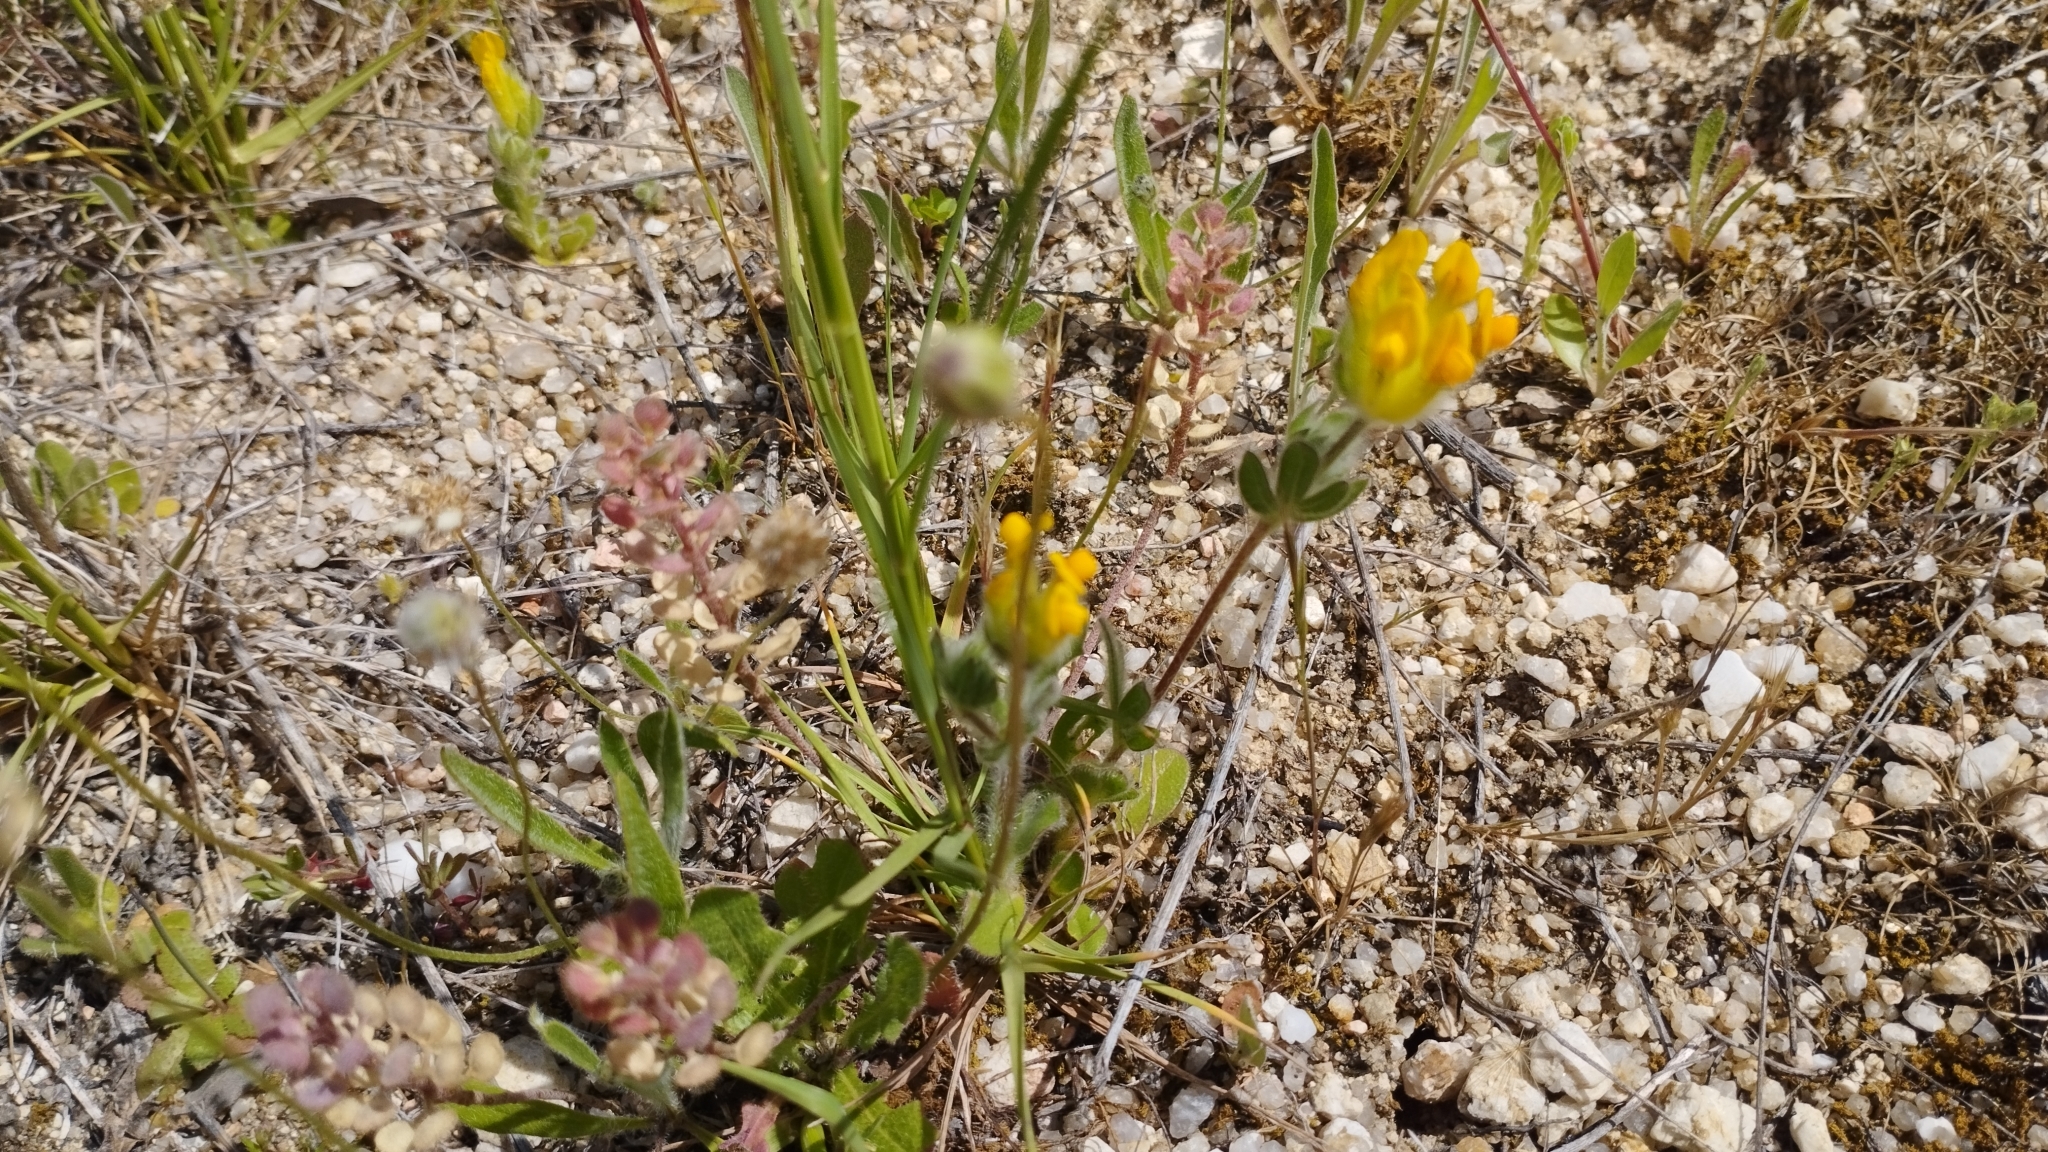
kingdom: Plantae
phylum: Tracheophyta
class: Magnoliopsida
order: Fabales
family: Fabaceae
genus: Anthyllis
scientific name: Anthyllis lotoides
